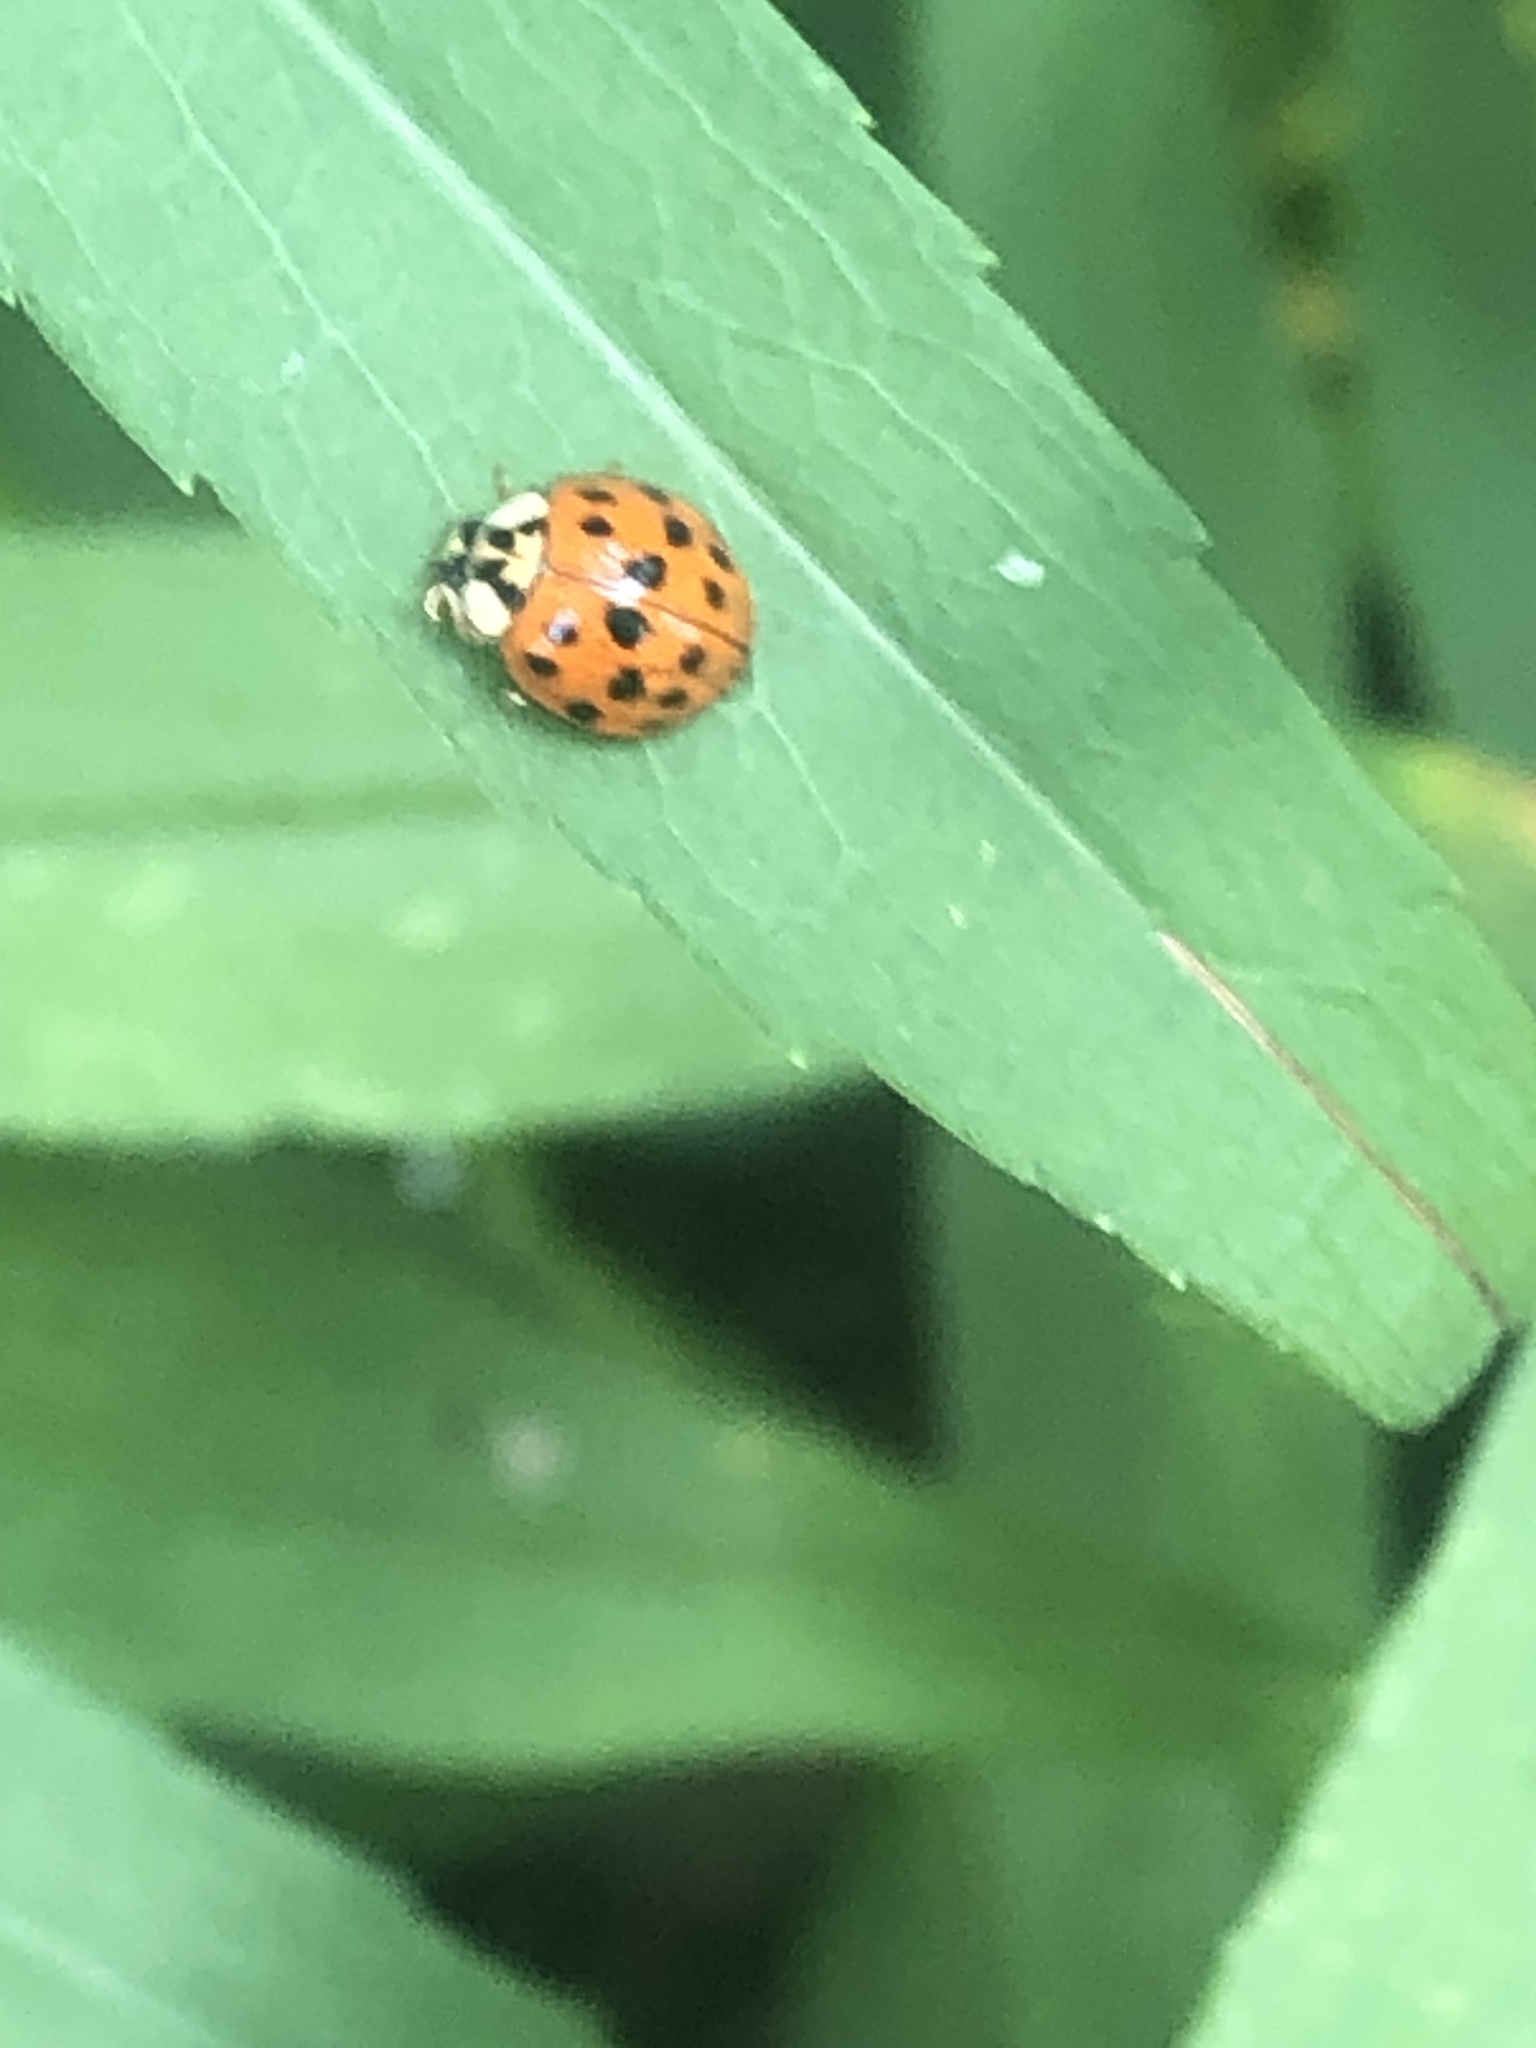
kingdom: Animalia
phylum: Arthropoda
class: Insecta
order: Coleoptera
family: Coccinellidae
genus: Harmonia
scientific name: Harmonia axyridis
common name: Harlequin ladybird
